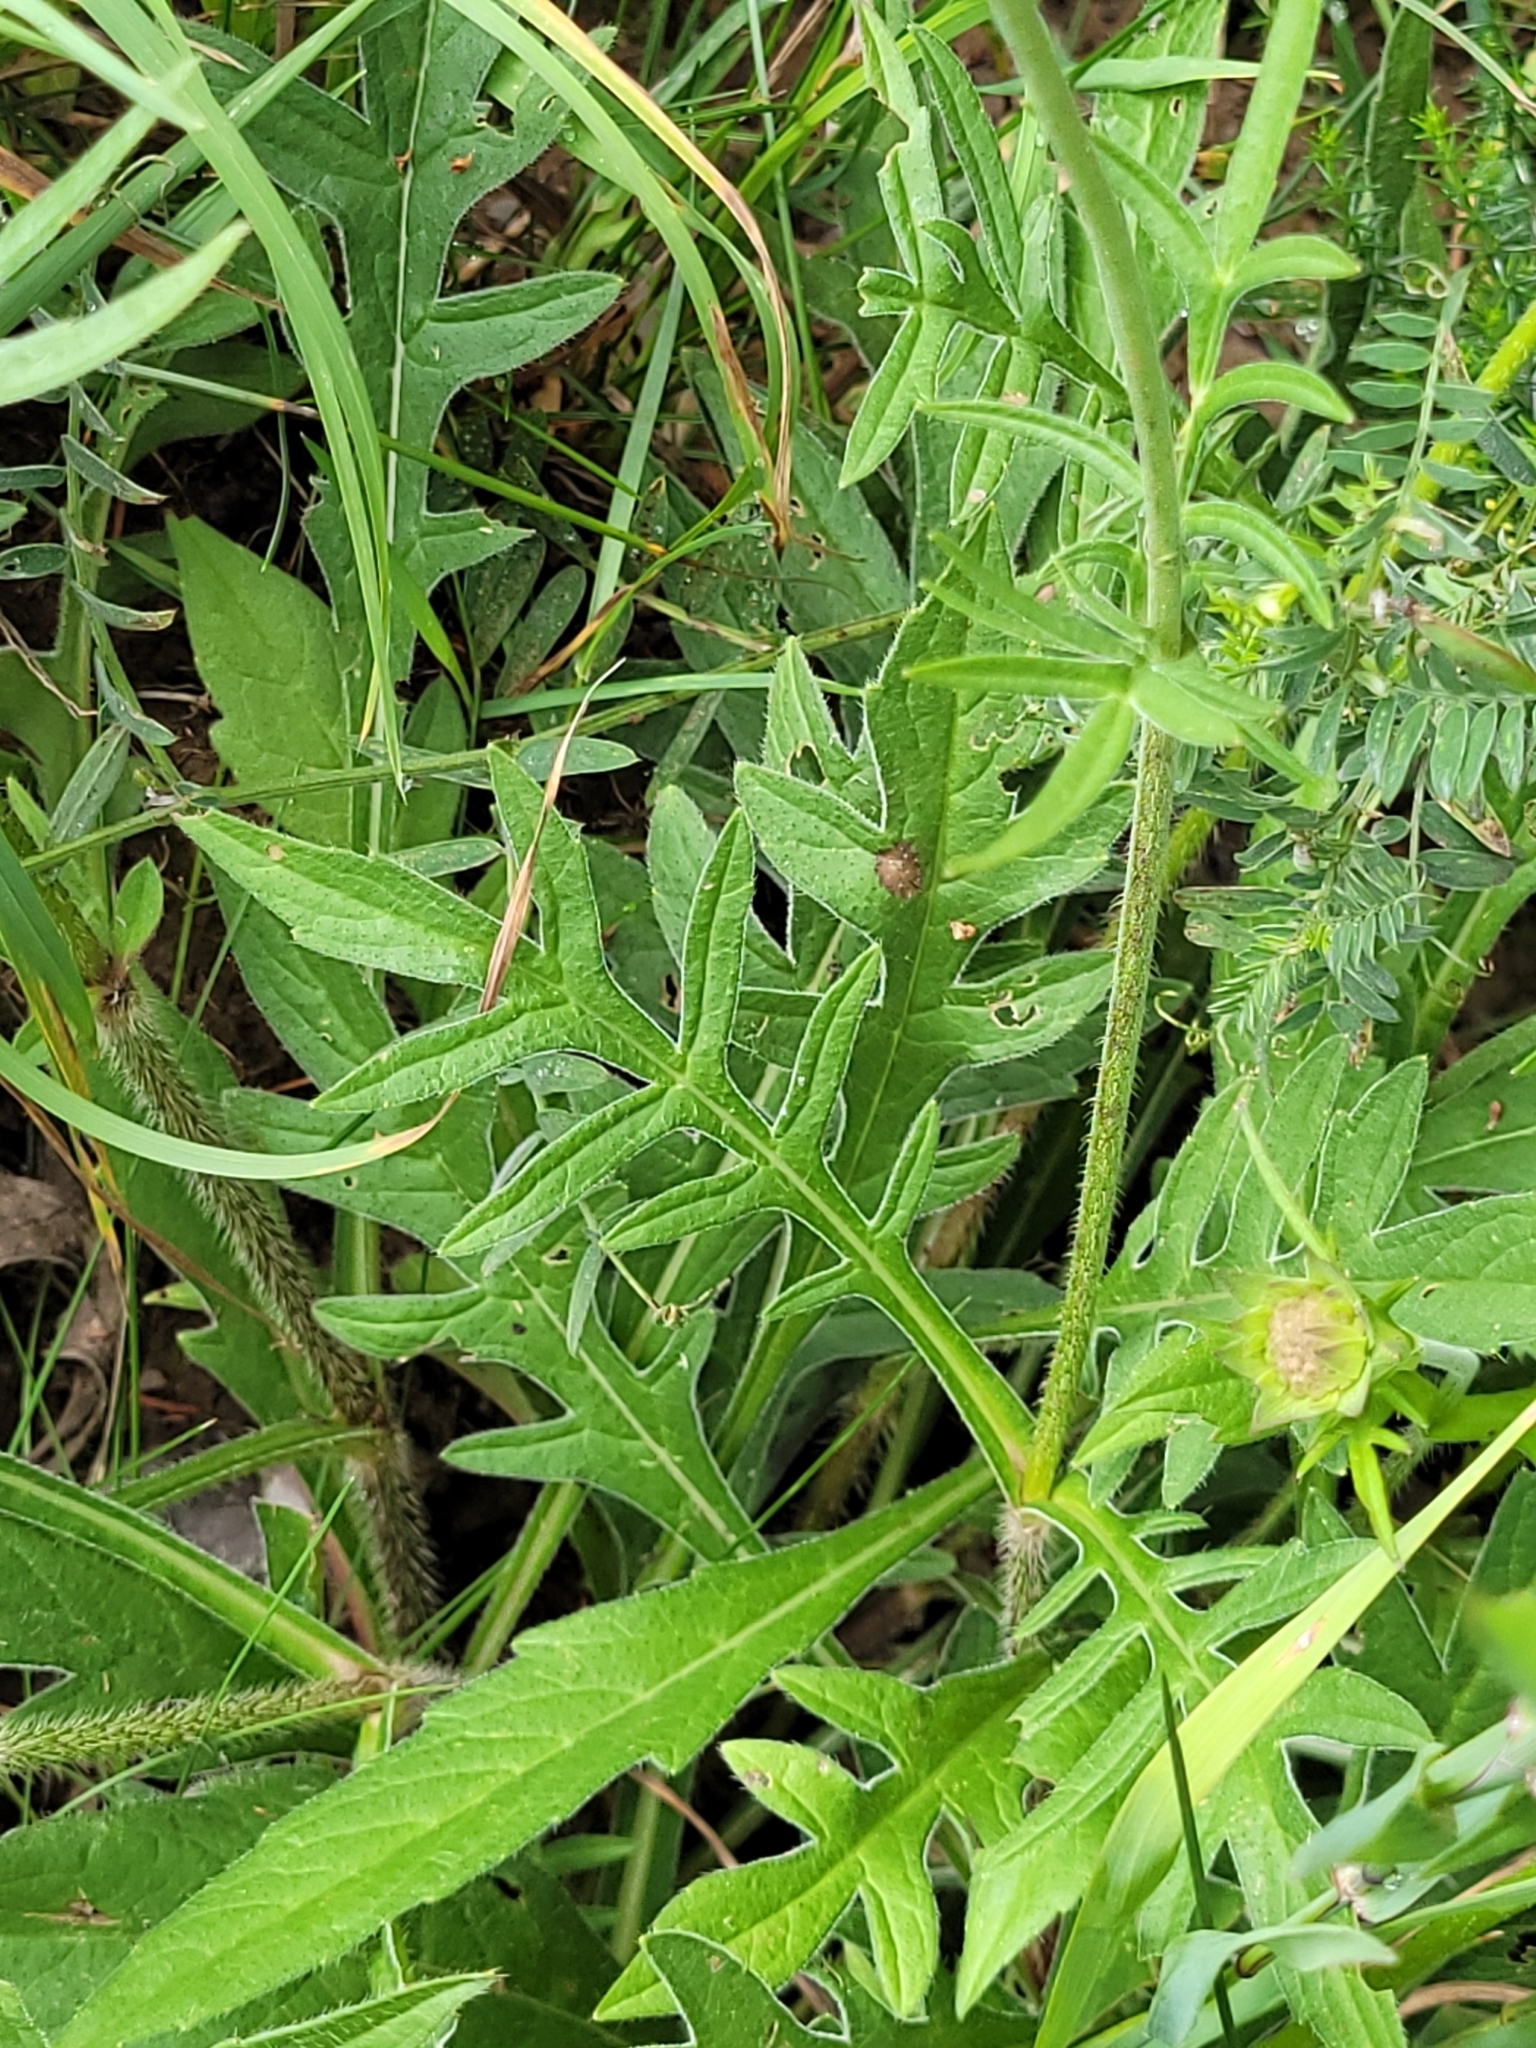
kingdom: Plantae
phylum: Tracheophyta
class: Magnoliopsida
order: Dipsacales
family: Caprifoliaceae
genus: Knautia
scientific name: Knautia arvensis
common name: Field scabiosa
